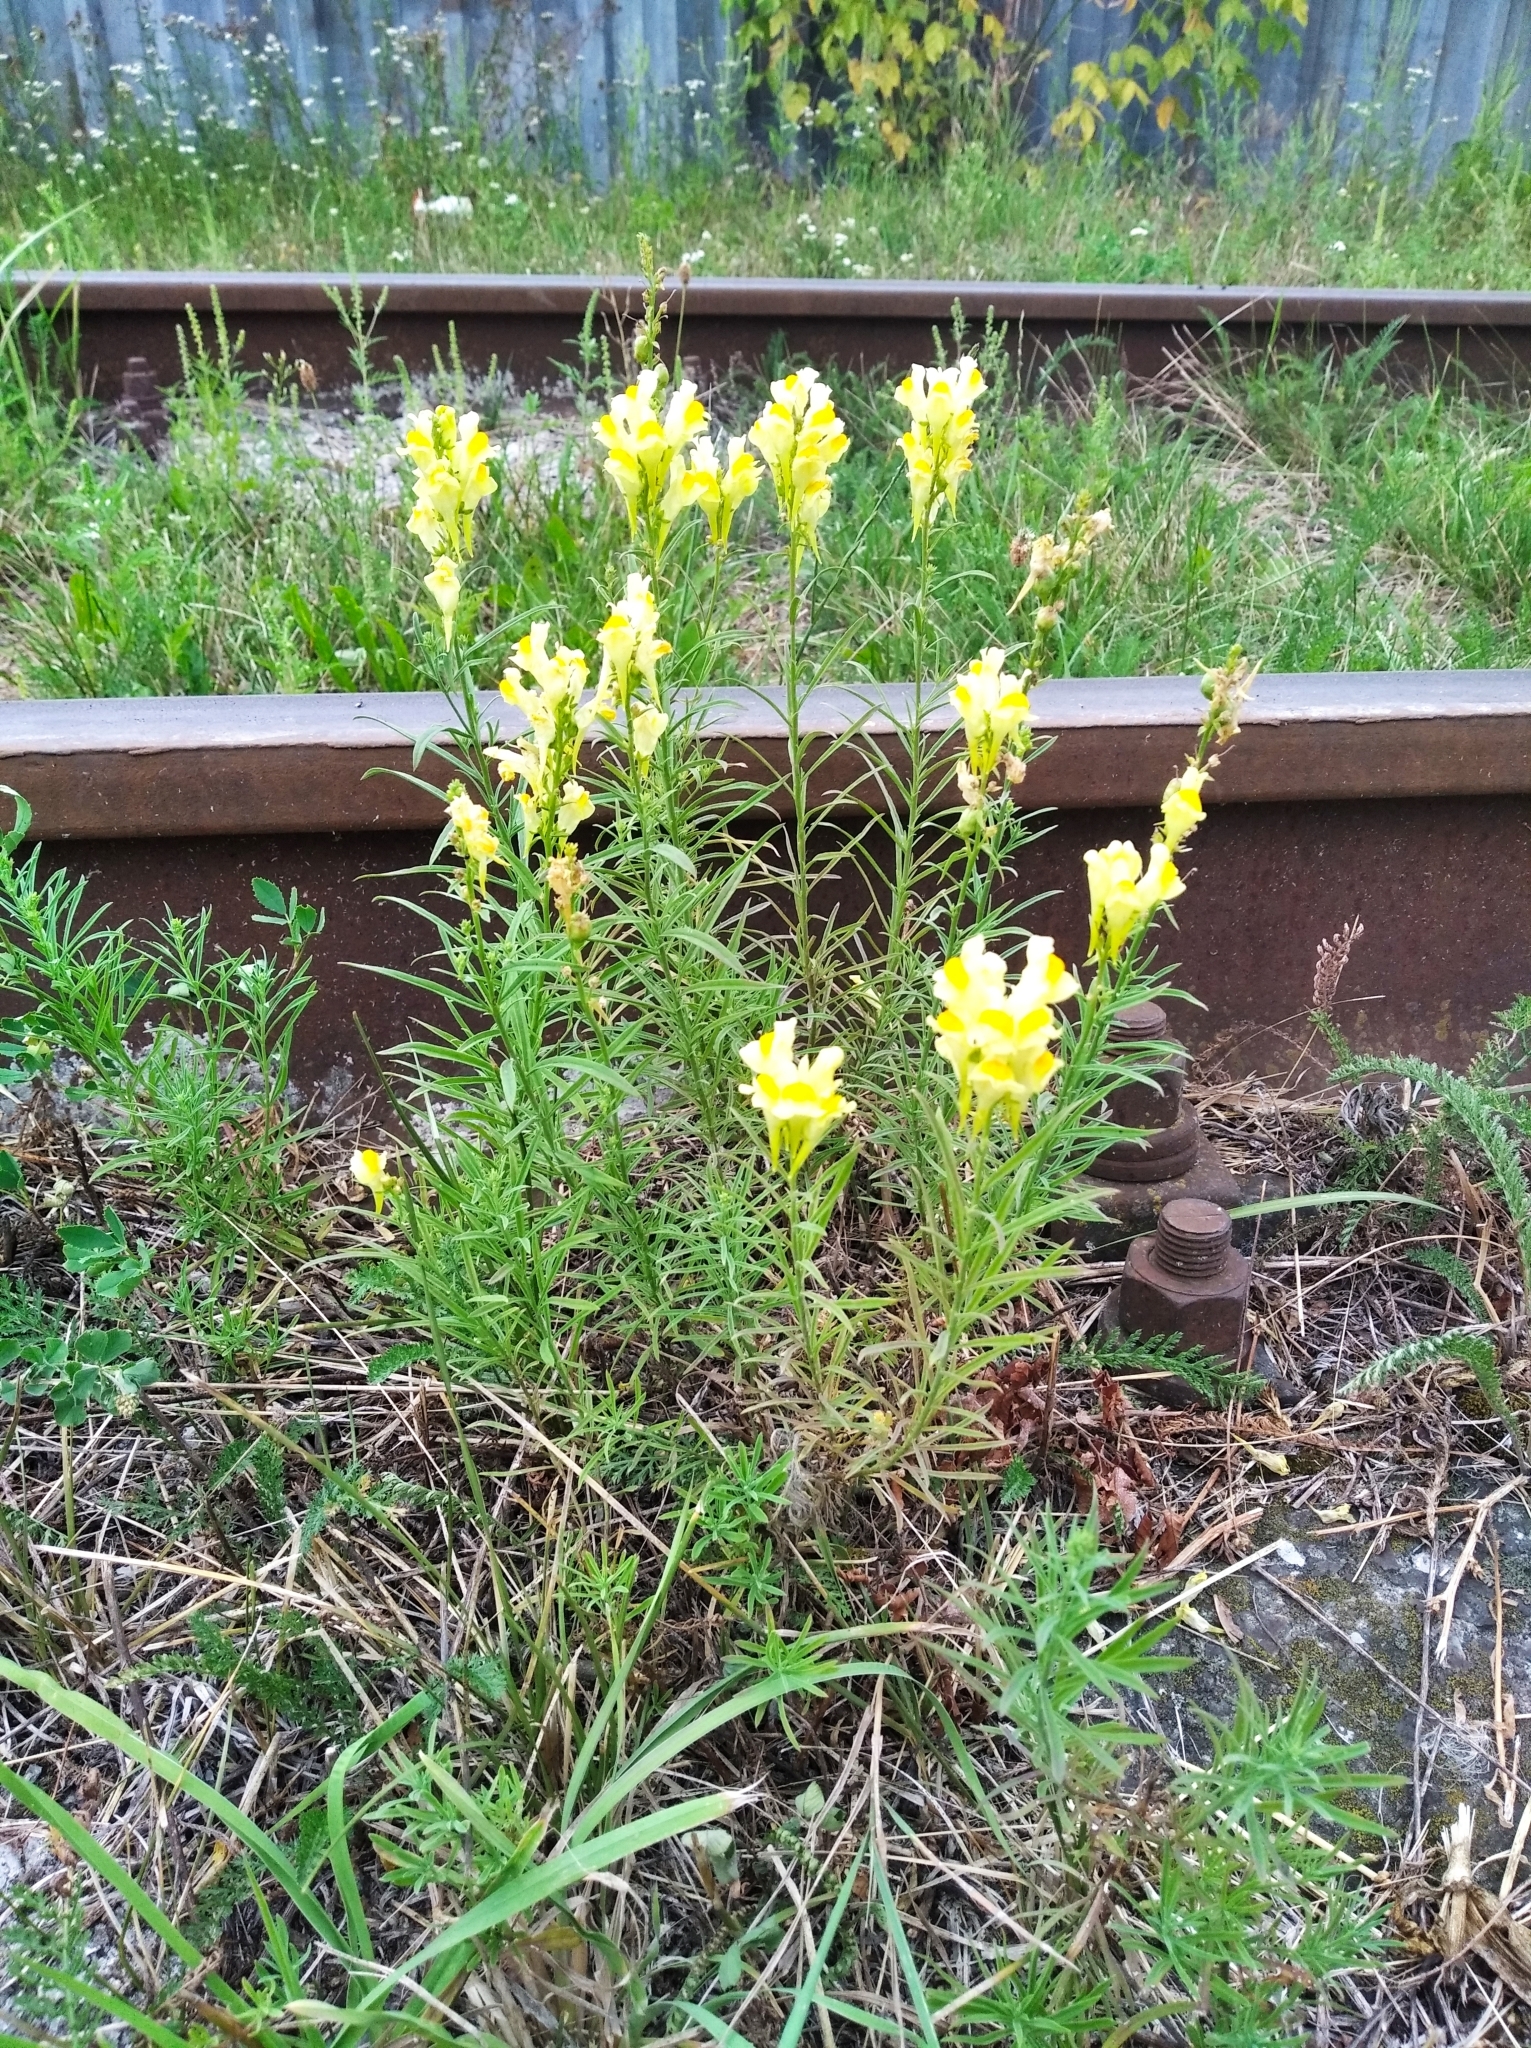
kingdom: Plantae
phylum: Tracheophyta
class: Magnoliopsida
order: Lamiales
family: Plantaginaceae
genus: Linaria
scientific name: Linaria vulgaris
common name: Butter and eggs
